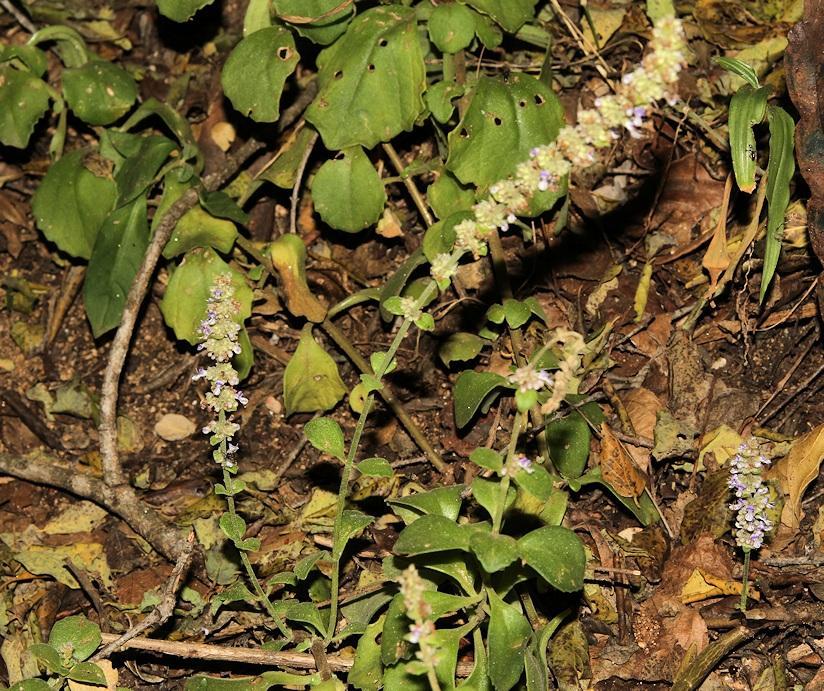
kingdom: Plantae
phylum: Tracheophyta
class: Magnoliopsida
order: Lamiales
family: Lamiaceae
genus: Coleus
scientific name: Coleus cylindraceus
